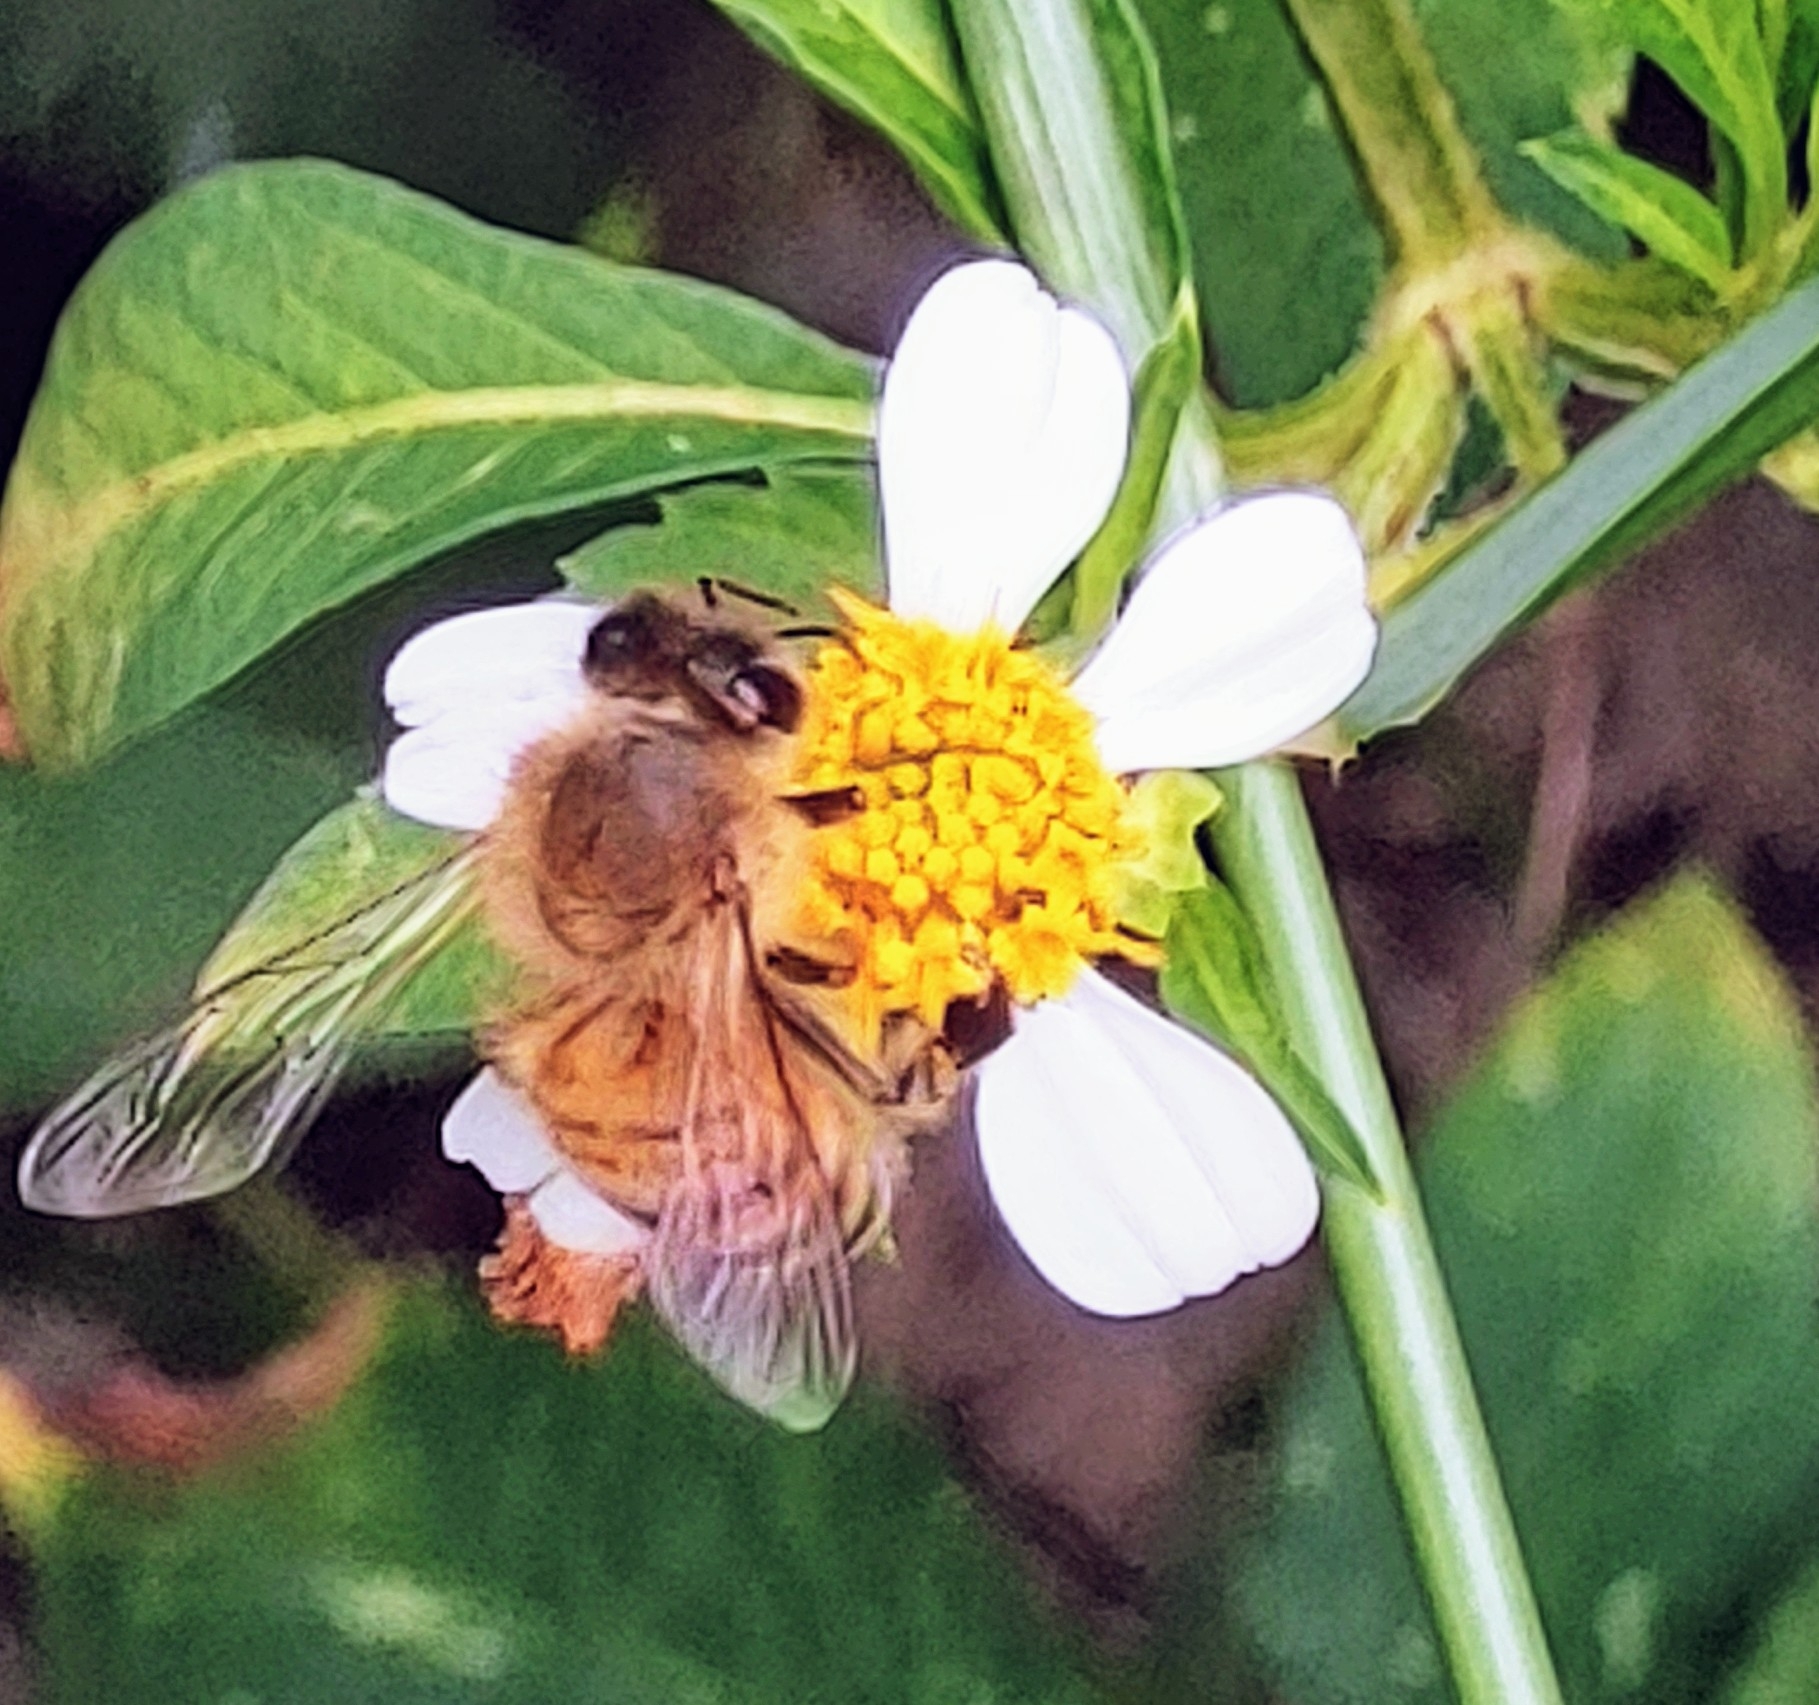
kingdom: Animalia
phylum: Arthropoda
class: Insecta
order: Hymenoptera
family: Apidae
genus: Apis
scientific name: Apis mellifera
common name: Honey bee
